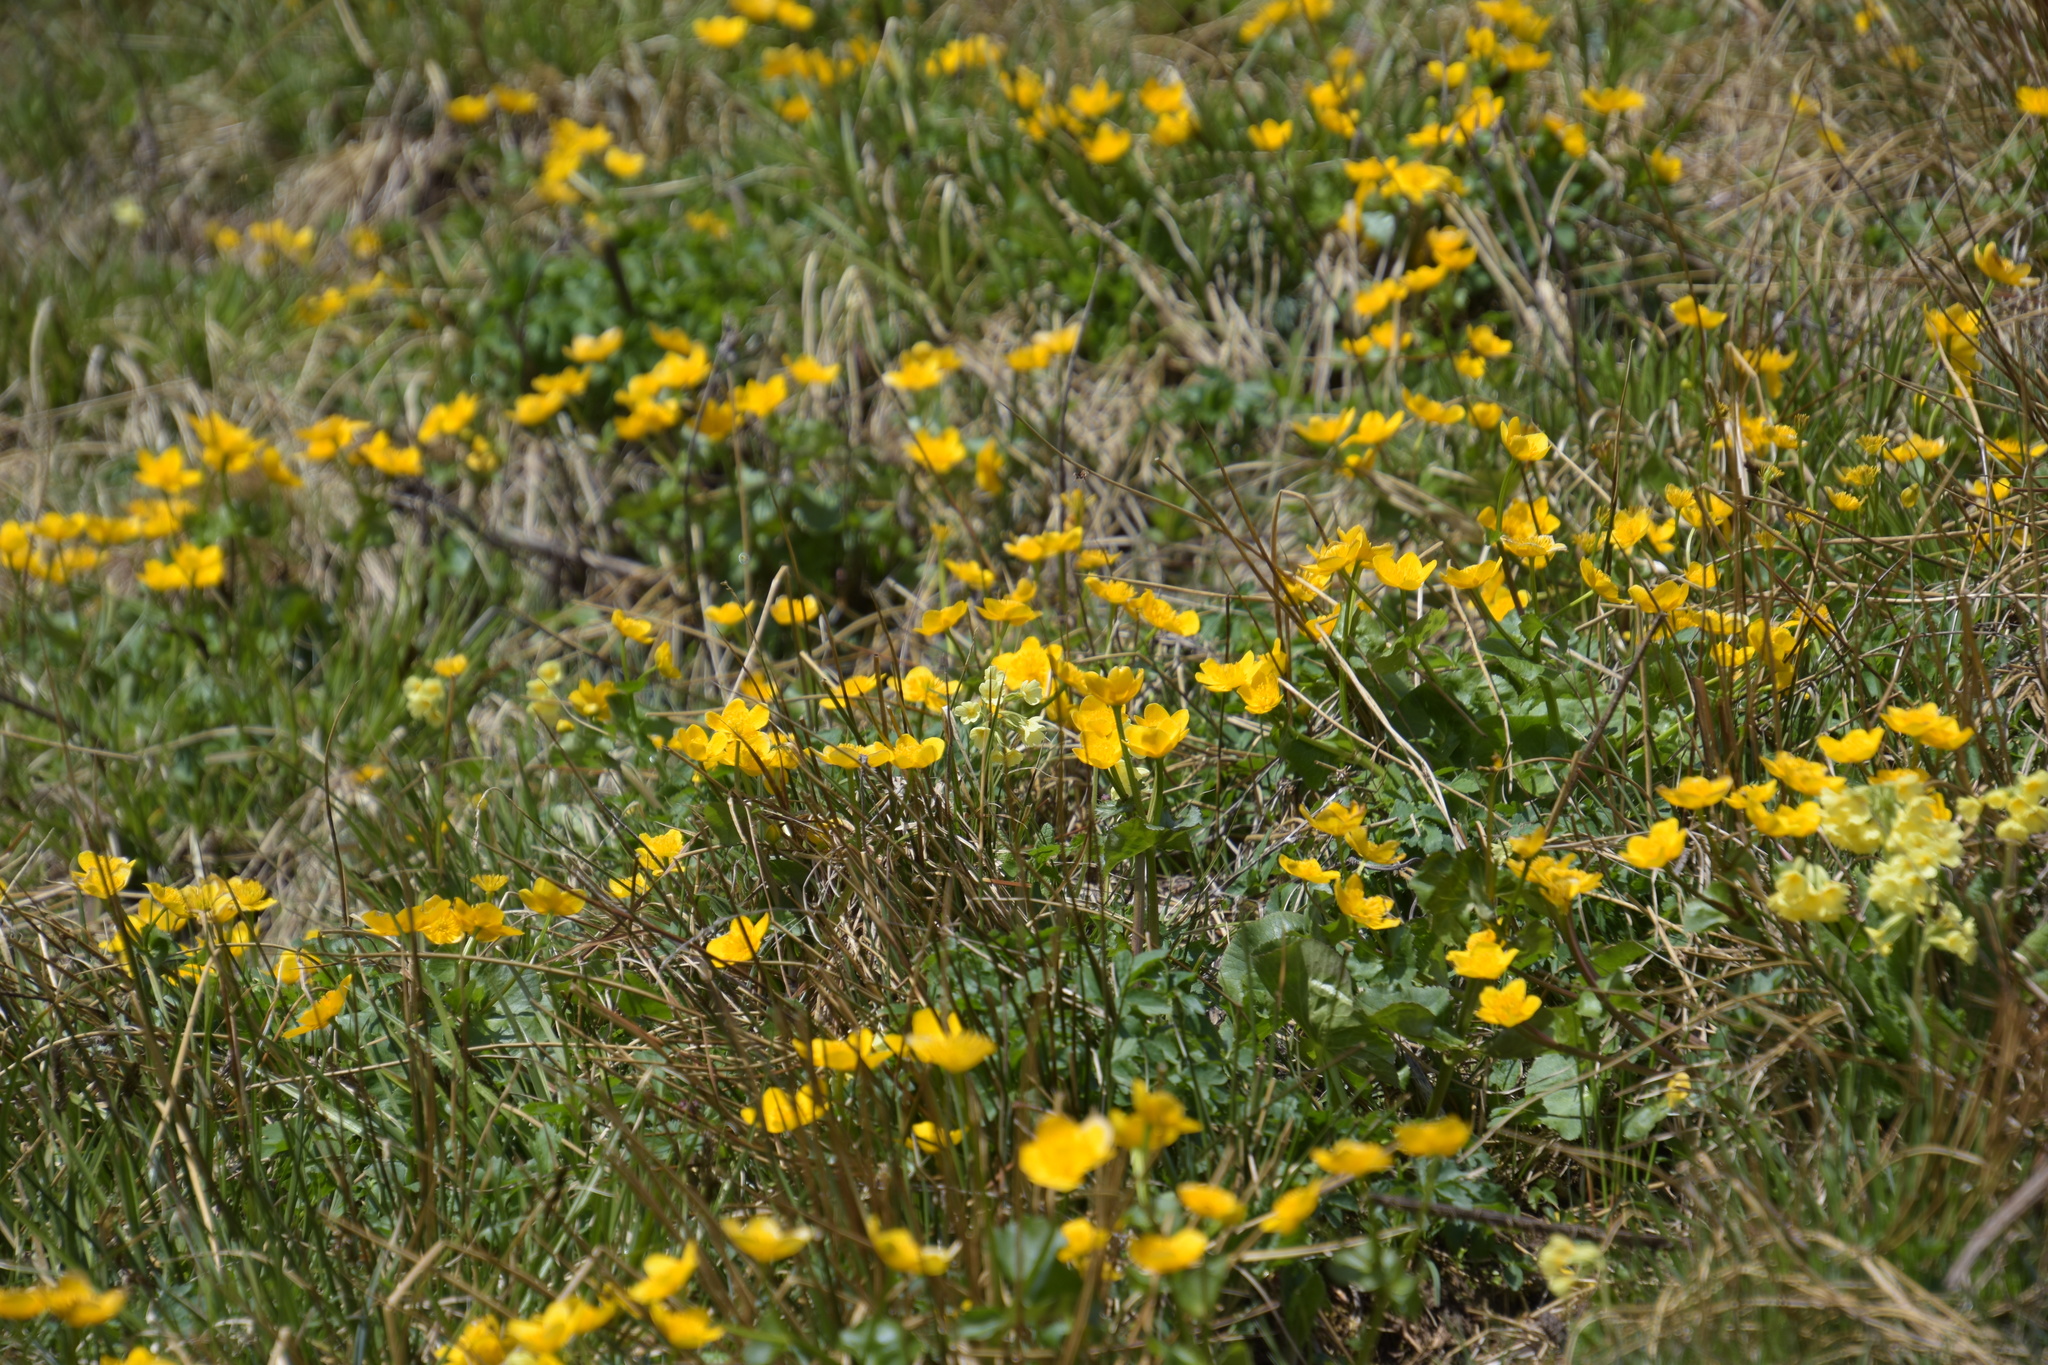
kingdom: Plantae
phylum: Tracheophyta
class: Magnoliopsida
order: Ranunculales
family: Ranunculaceae
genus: Caltha
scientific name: Caltha palustris
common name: Marsh marigold
